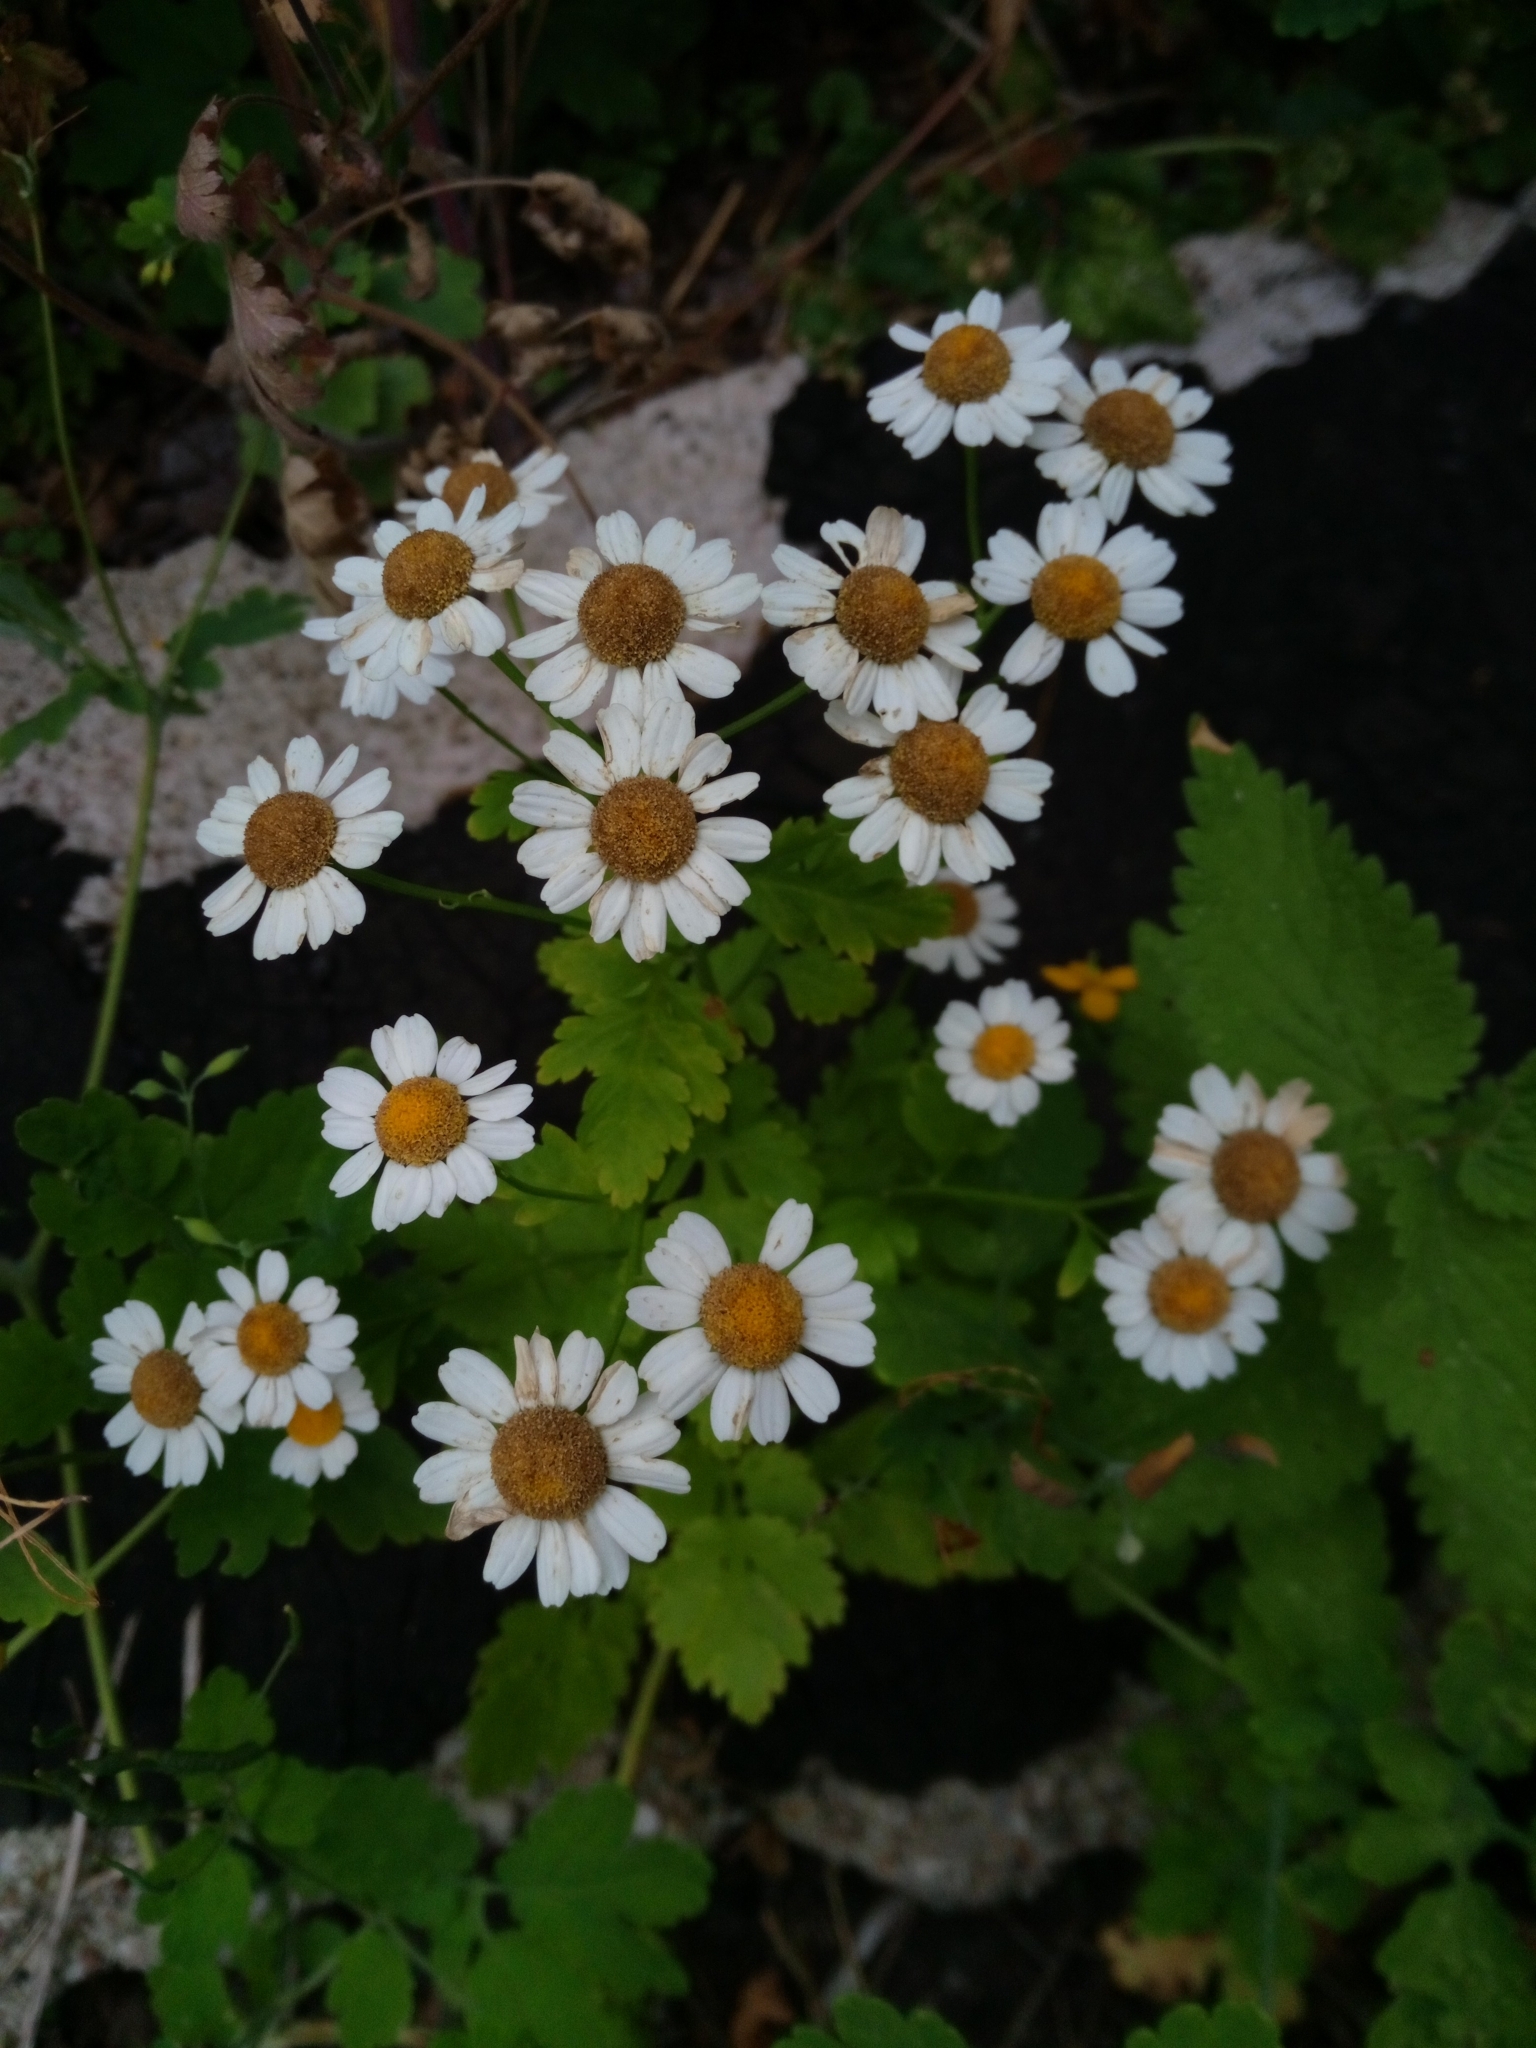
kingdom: Plantae
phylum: Tracheophyta
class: Magnoliopsida
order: Asterales
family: Asteraceae
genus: Tanacetum
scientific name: Tanacetum parthenium
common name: Feverfew
